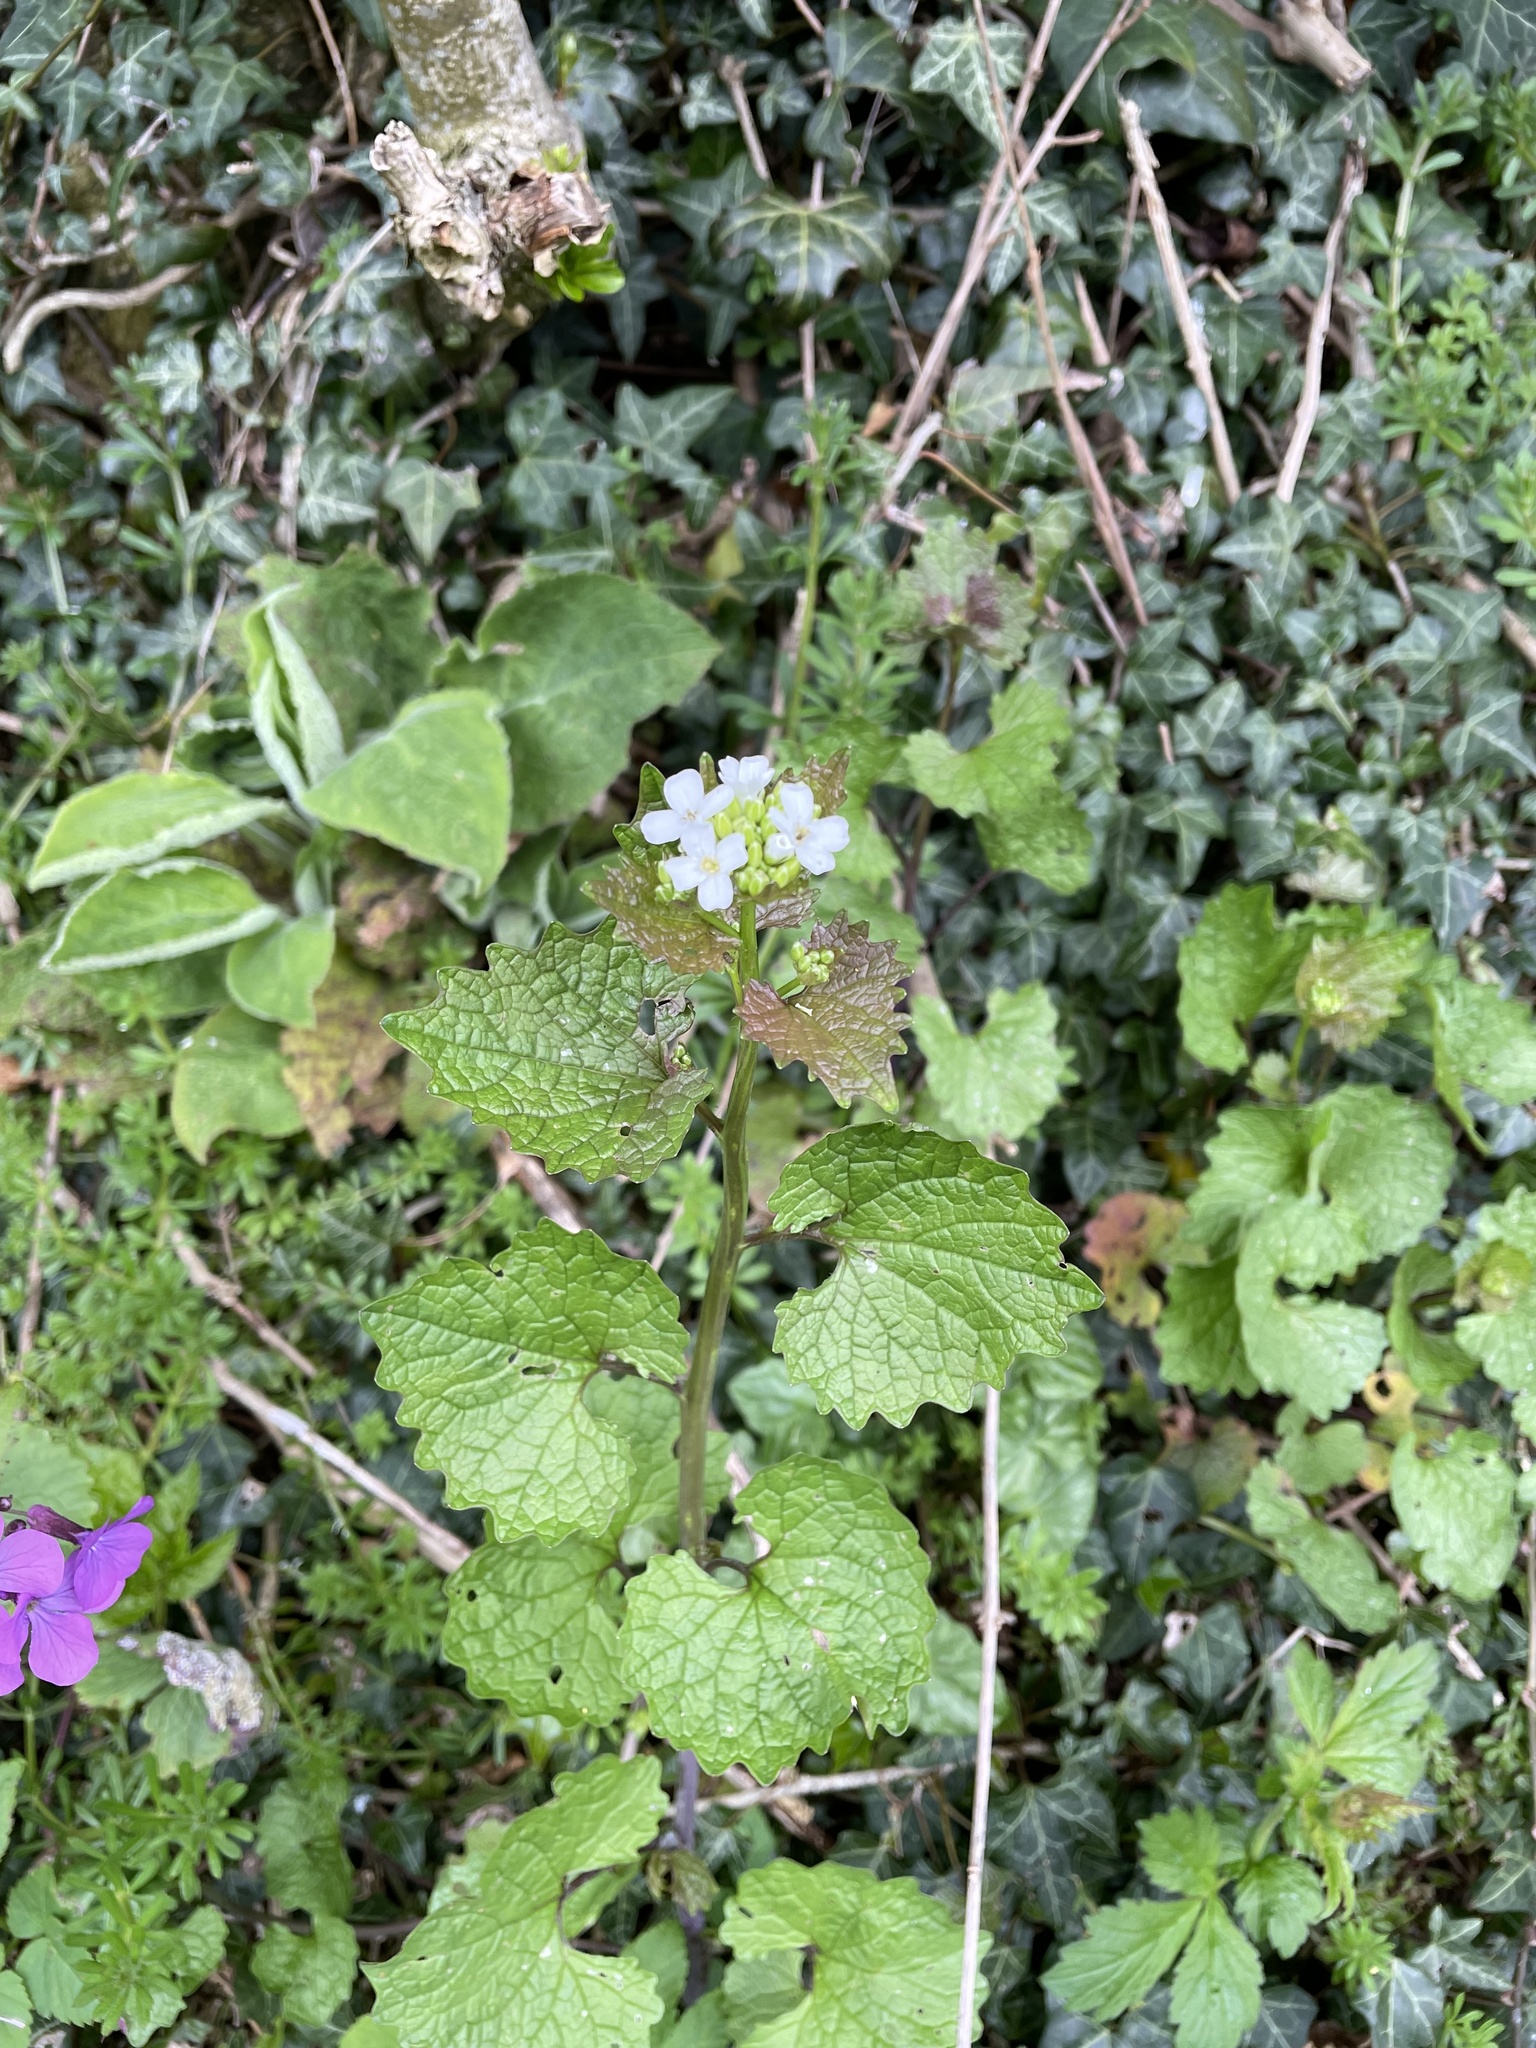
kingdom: Plantae
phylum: Tracheophyta
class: Magnoliopsida
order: Brassicales
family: Brassicaceae
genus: Alliaria
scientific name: Alliaria petiolata
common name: Garlic mustard
